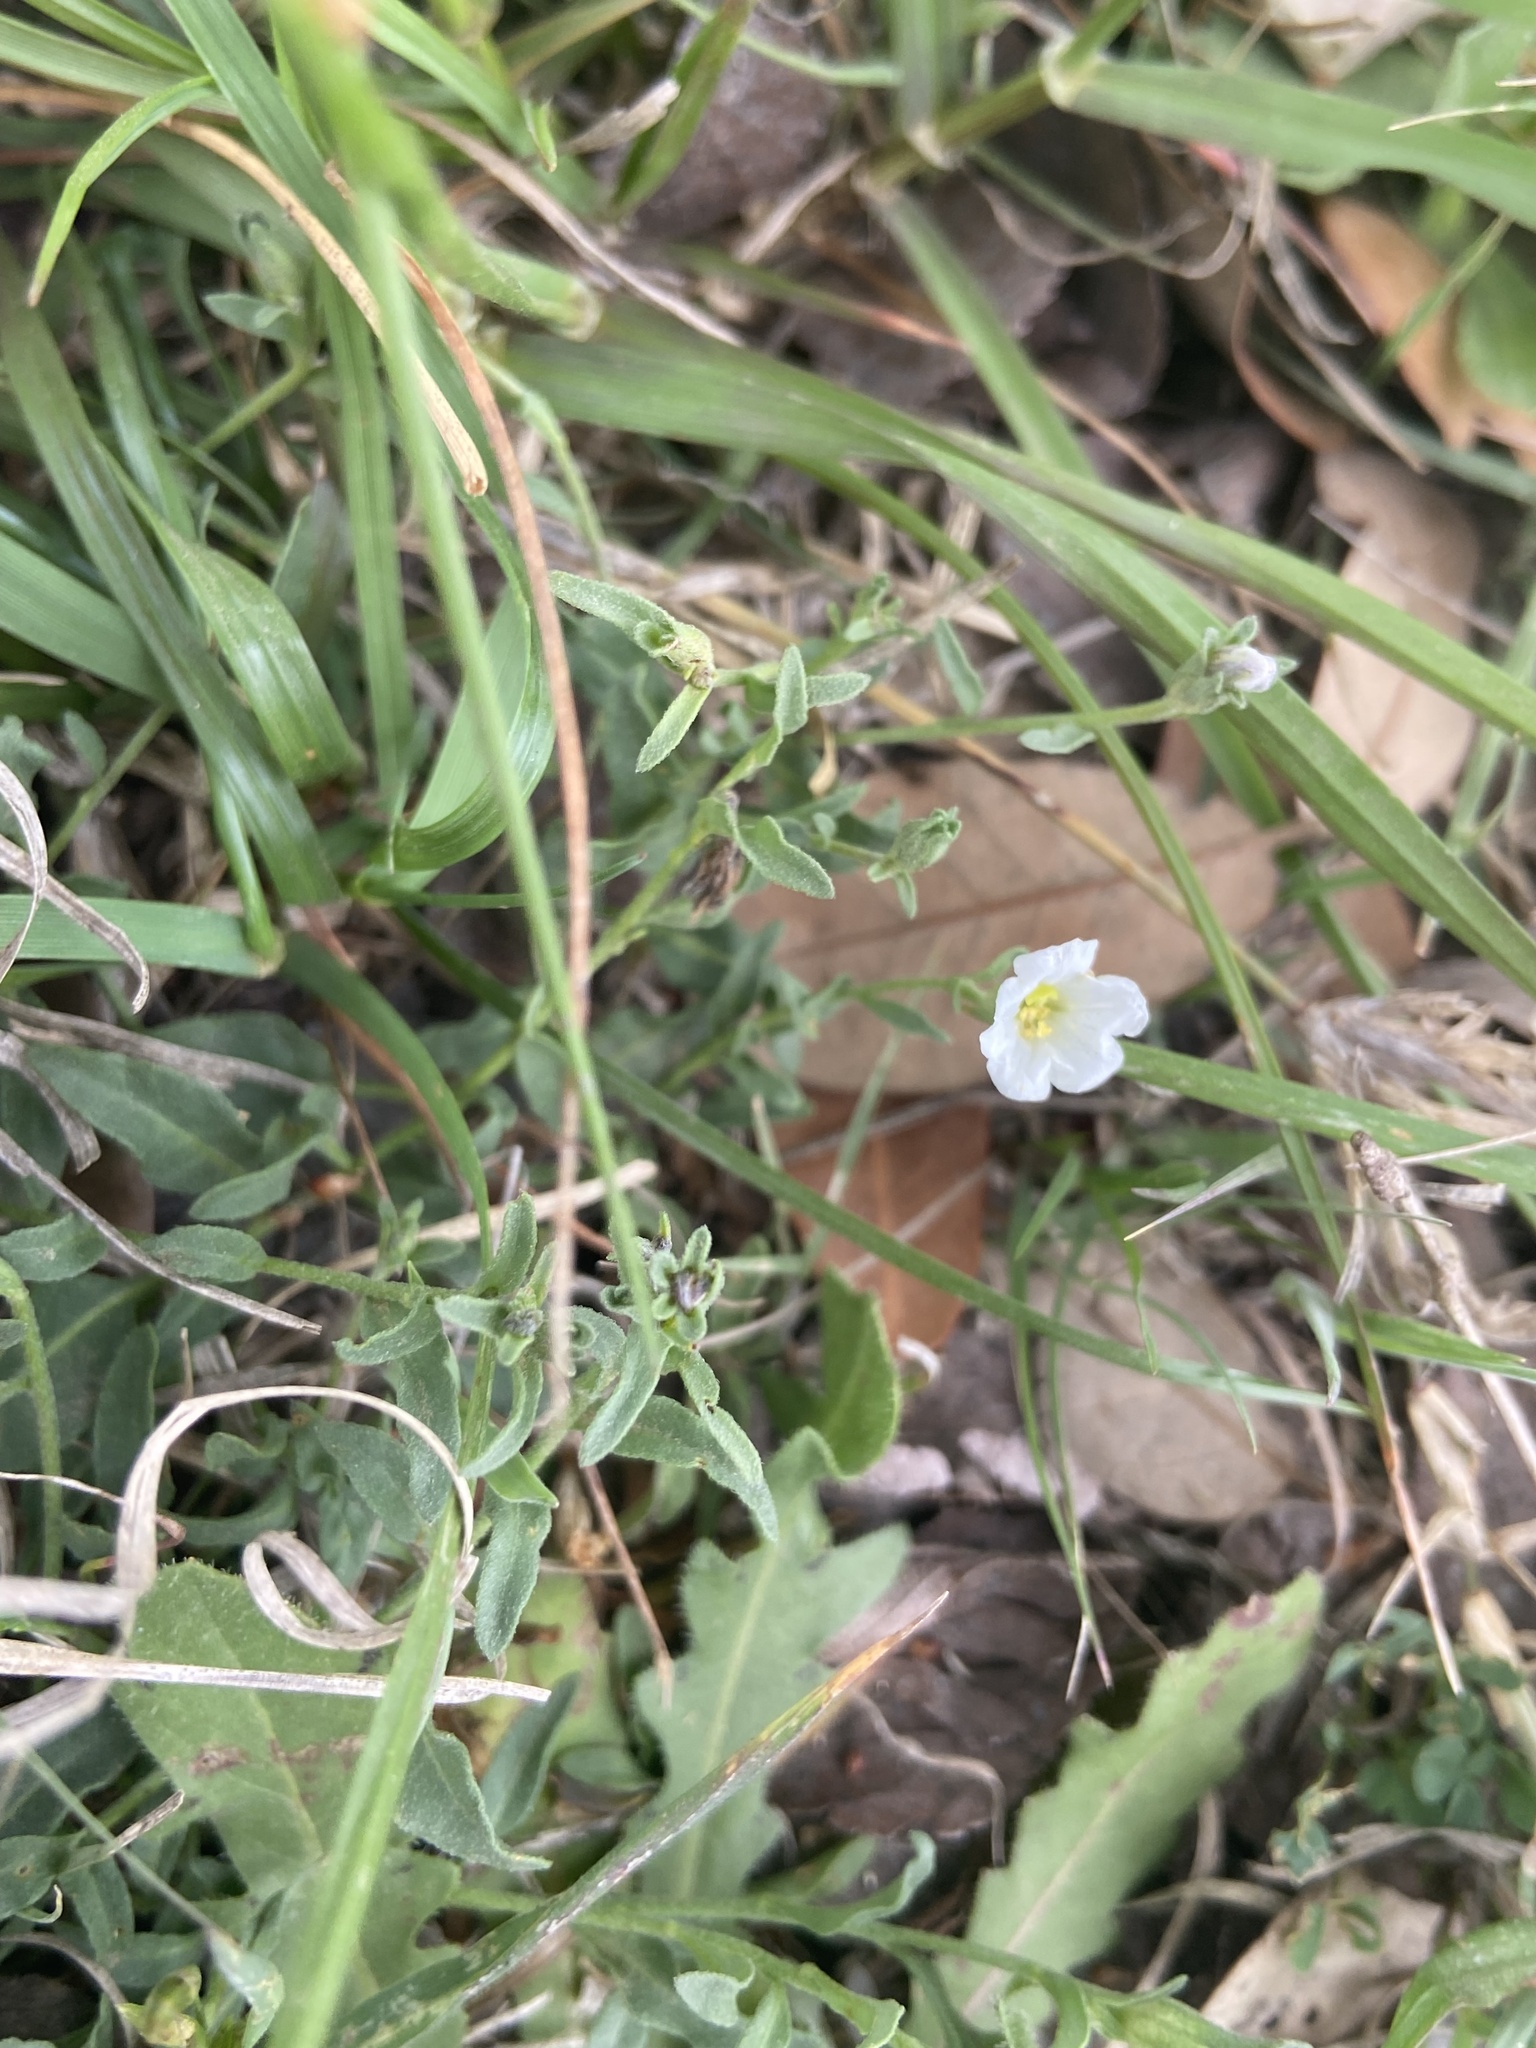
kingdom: Plantae
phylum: Tracheophyta
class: Magnoliopsida
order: Solanales
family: Solanaceae
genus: Salpiglossis
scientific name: Salpiglossis erecta
